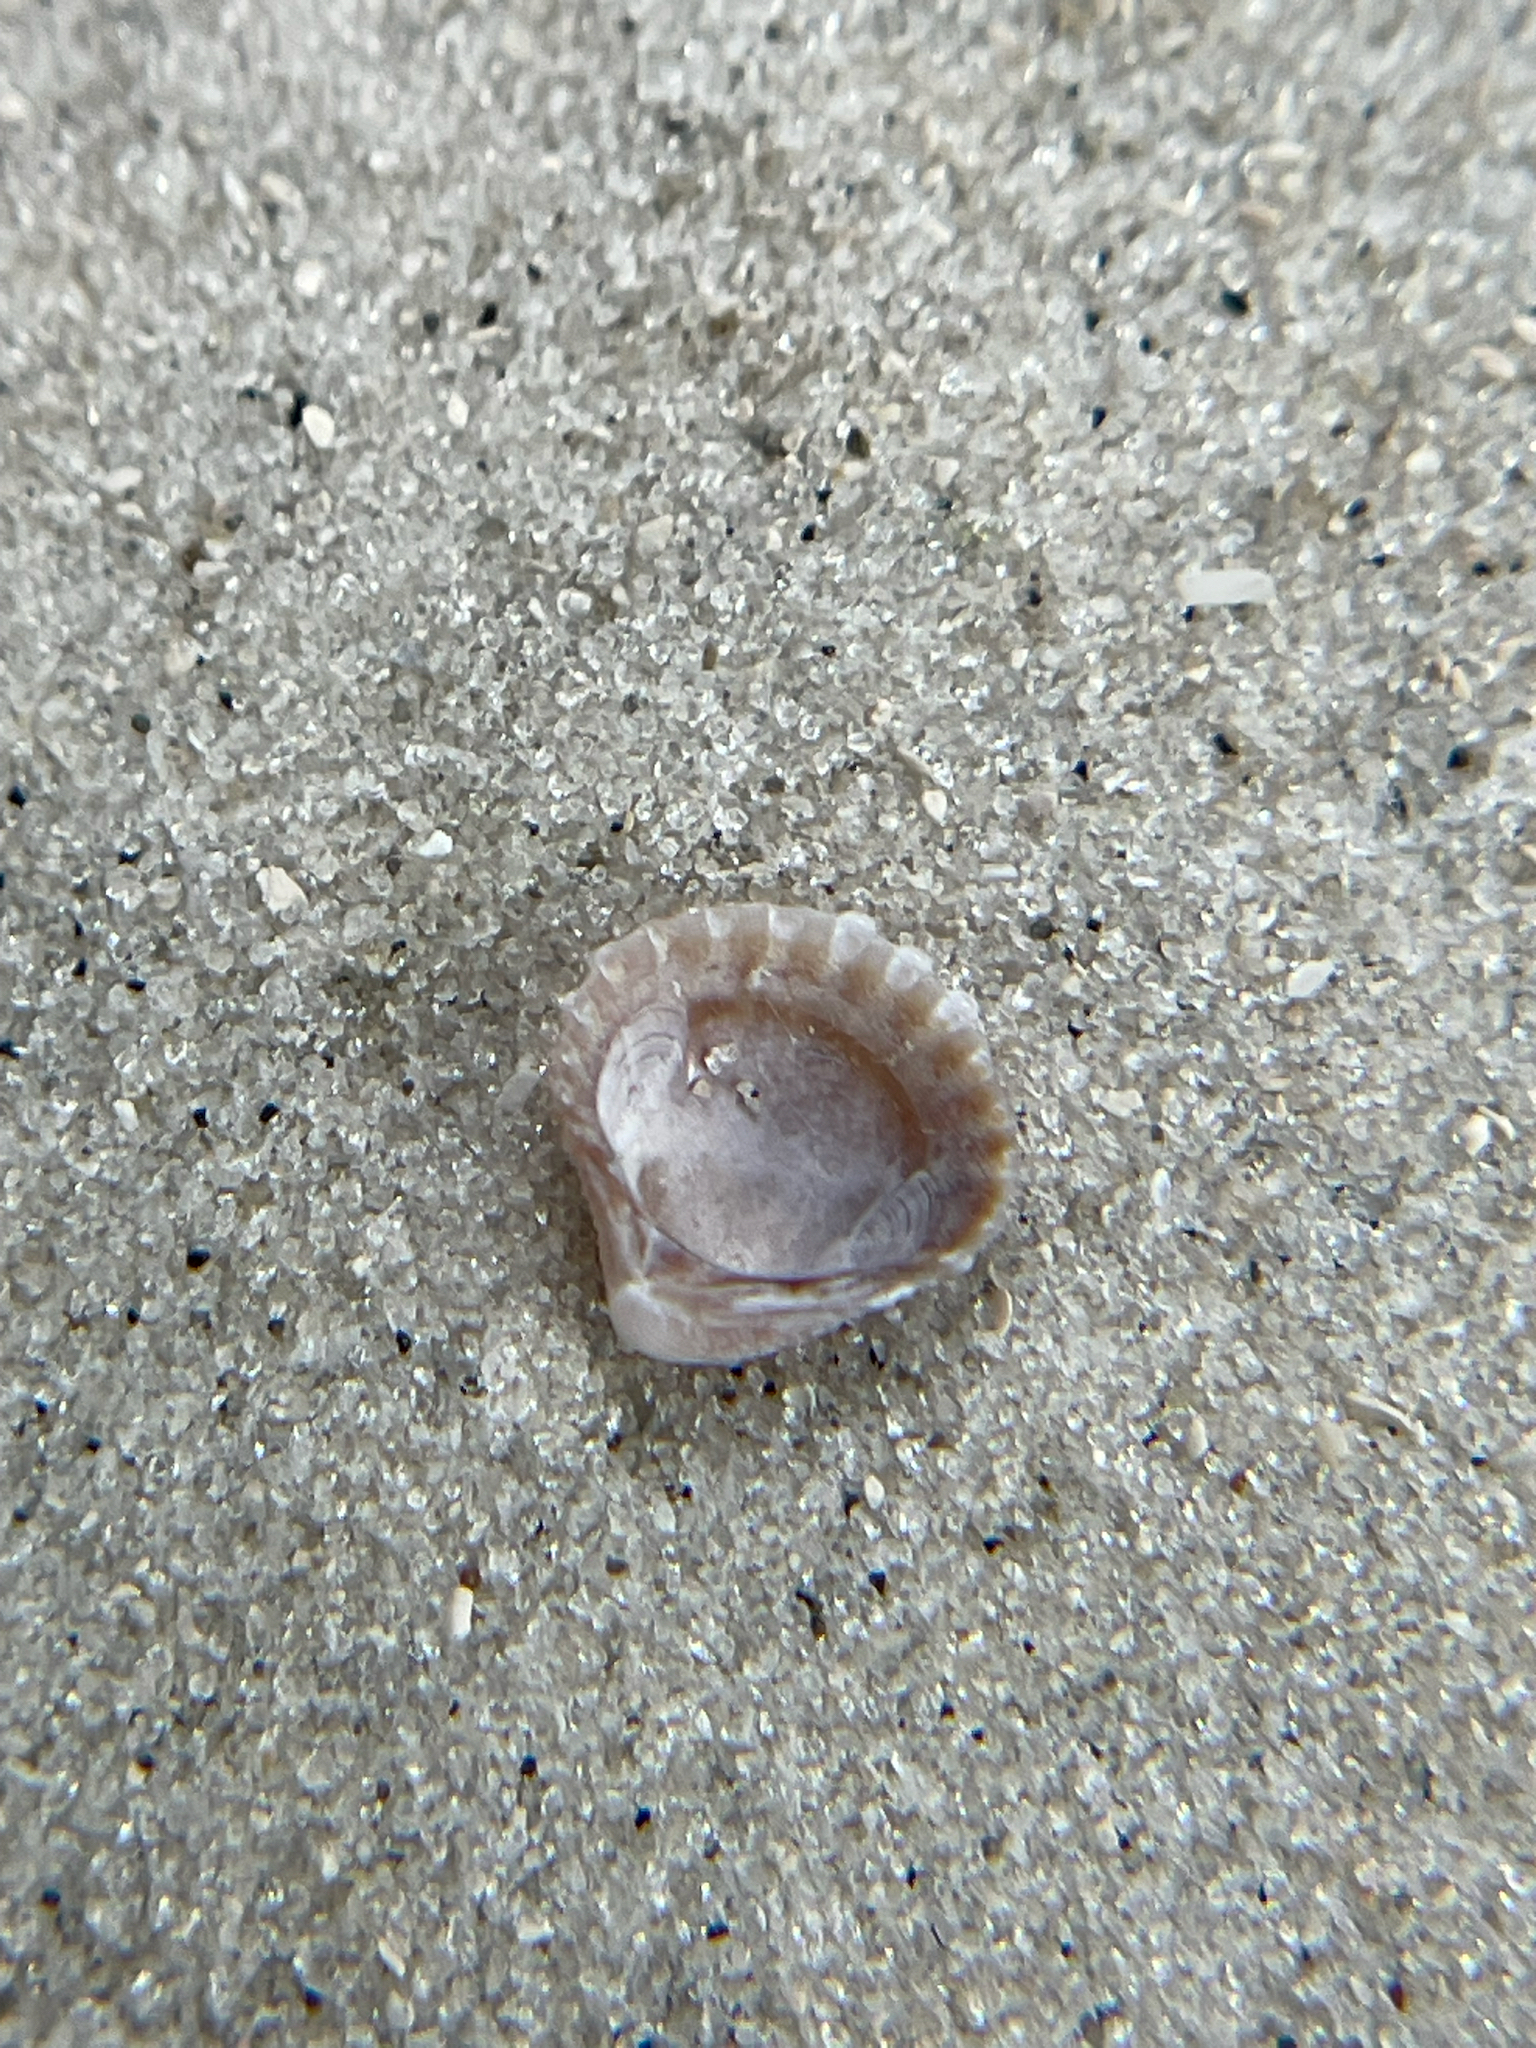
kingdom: Animalia
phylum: Mollusca
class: Bivalvia
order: Carditida
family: Carditidae
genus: Pleuromeris
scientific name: Pleuromeris tridentata
